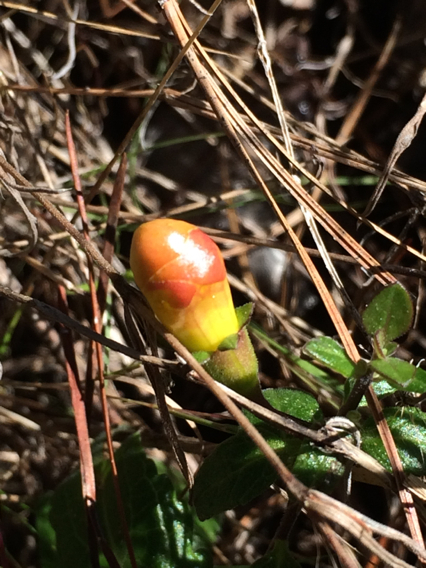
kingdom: Plantae
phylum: Tracheophyta
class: Magnoliopsida
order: Lamiales
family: Orobanchaceae
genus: Aureolaria
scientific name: Aureolaria grandiflora
